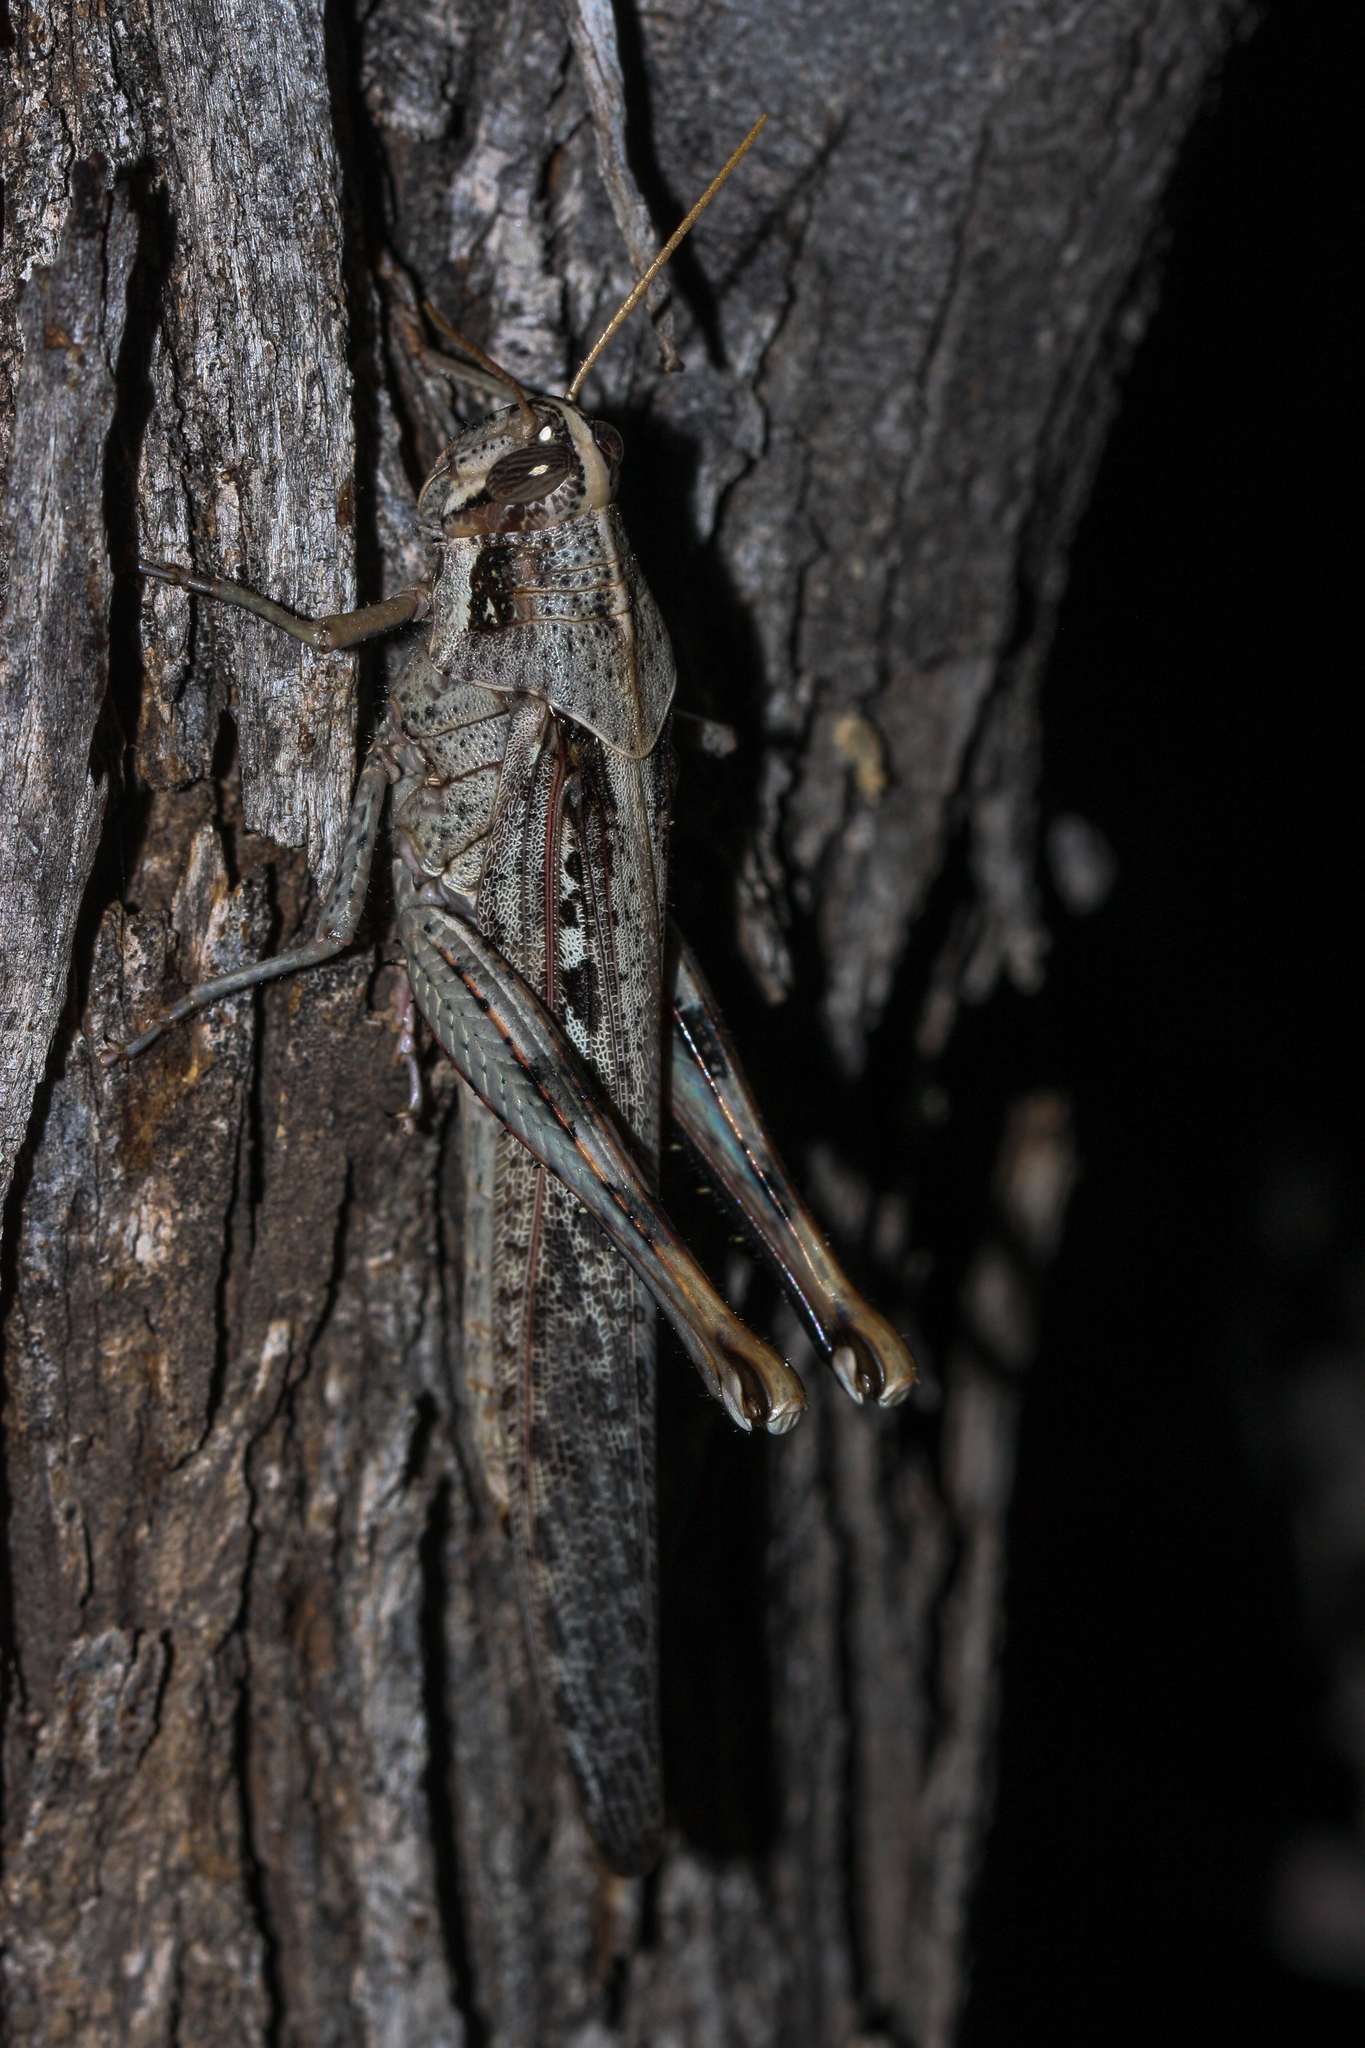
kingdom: Animalia
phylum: Arthropoda
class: Insecta
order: Orthoptera
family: Acrididae
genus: Schistocerca
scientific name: Schistocerca nitens
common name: Vagrant grasshopper
